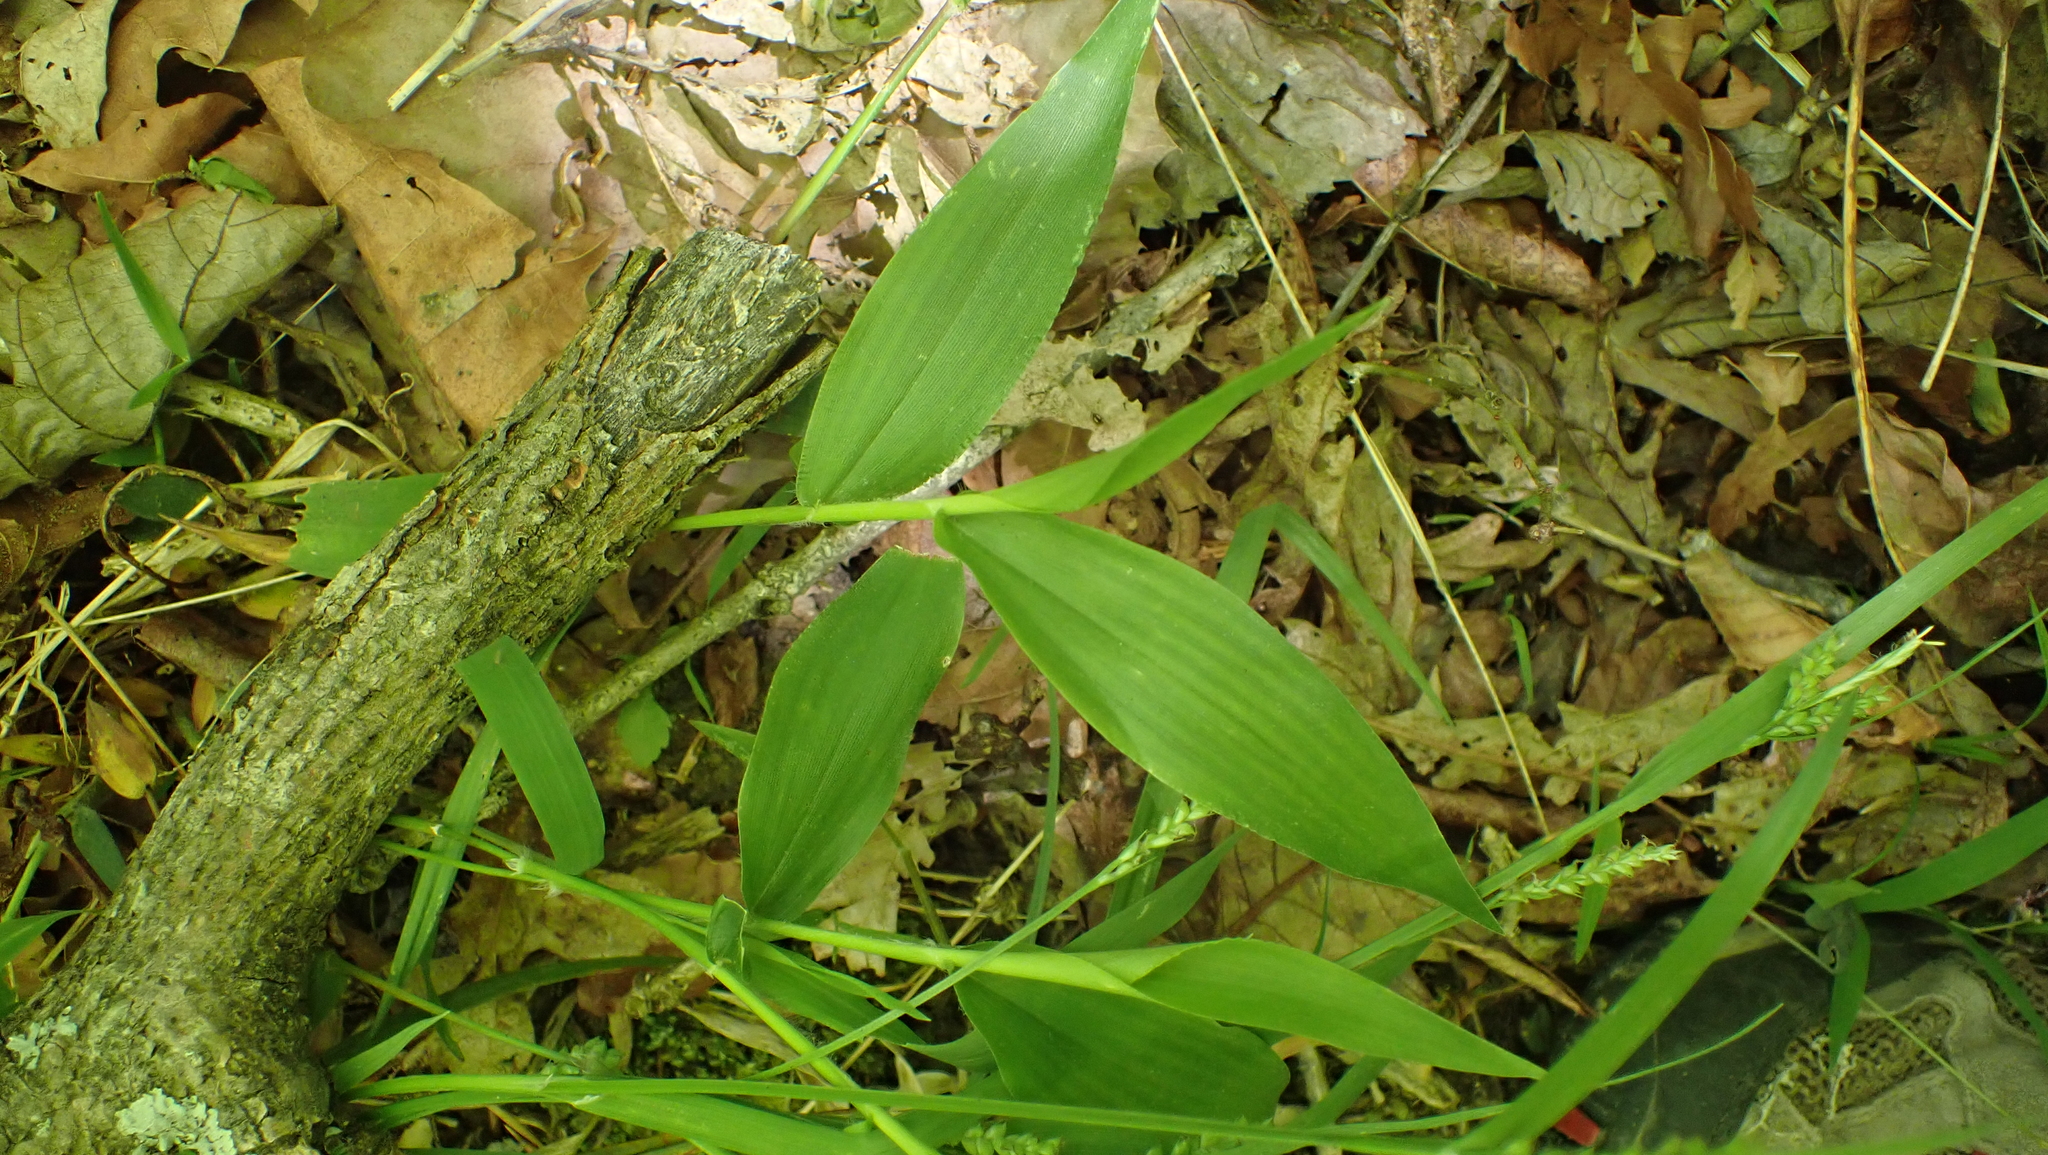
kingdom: Plantae
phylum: Tracheophyta
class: Liliopsida
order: Poales
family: Poaceae
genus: Dichanthelium
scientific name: Dichanthelium boscii
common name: Bosc's panic grass
